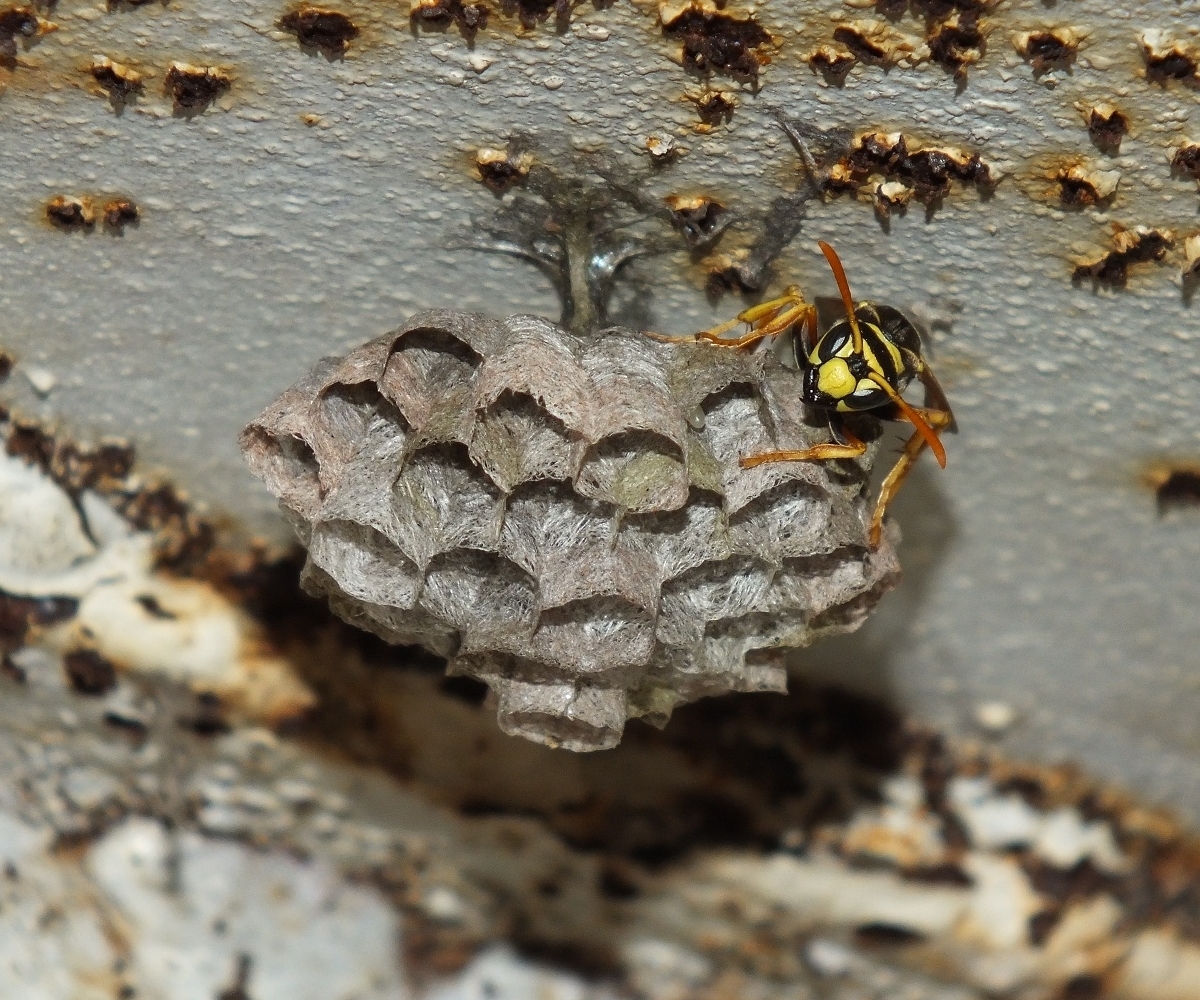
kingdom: Animalia
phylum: Arthropoda
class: Insecta
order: Hymenoptera
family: Eumenidae
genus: Polistes
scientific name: Polistes dominula
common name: Paper wasp
